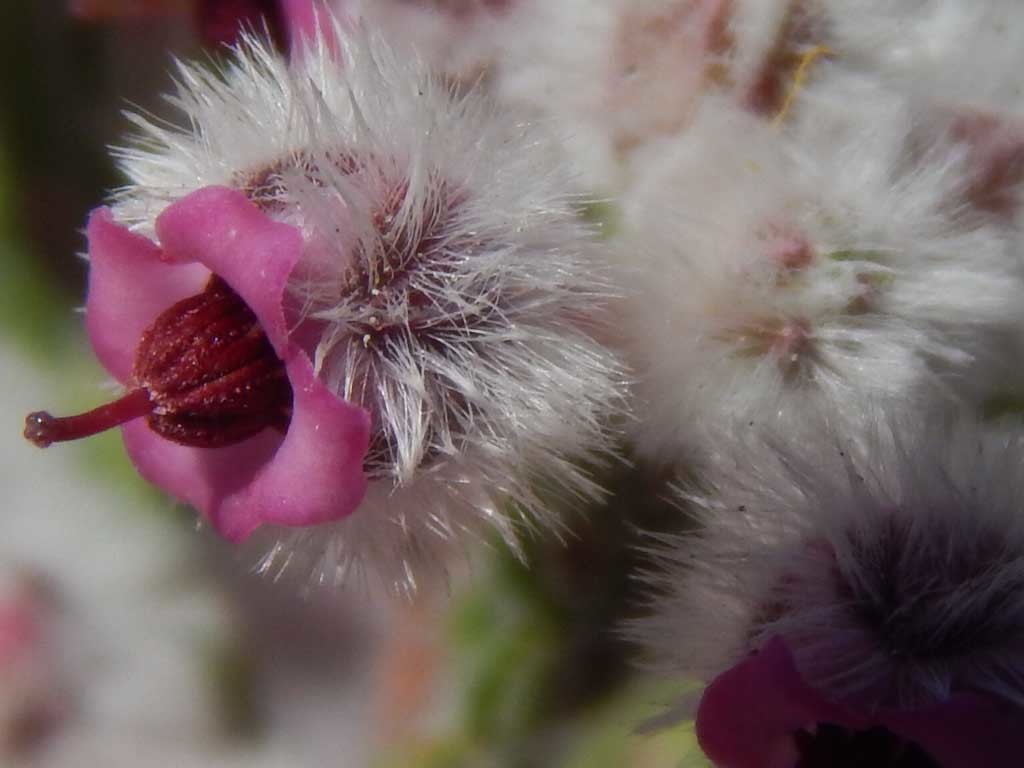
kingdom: Plantae
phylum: Tracheophyta
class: Magnoliopsida
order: Ericales
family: Ericaceae
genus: Erica
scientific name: Erica bruniades
